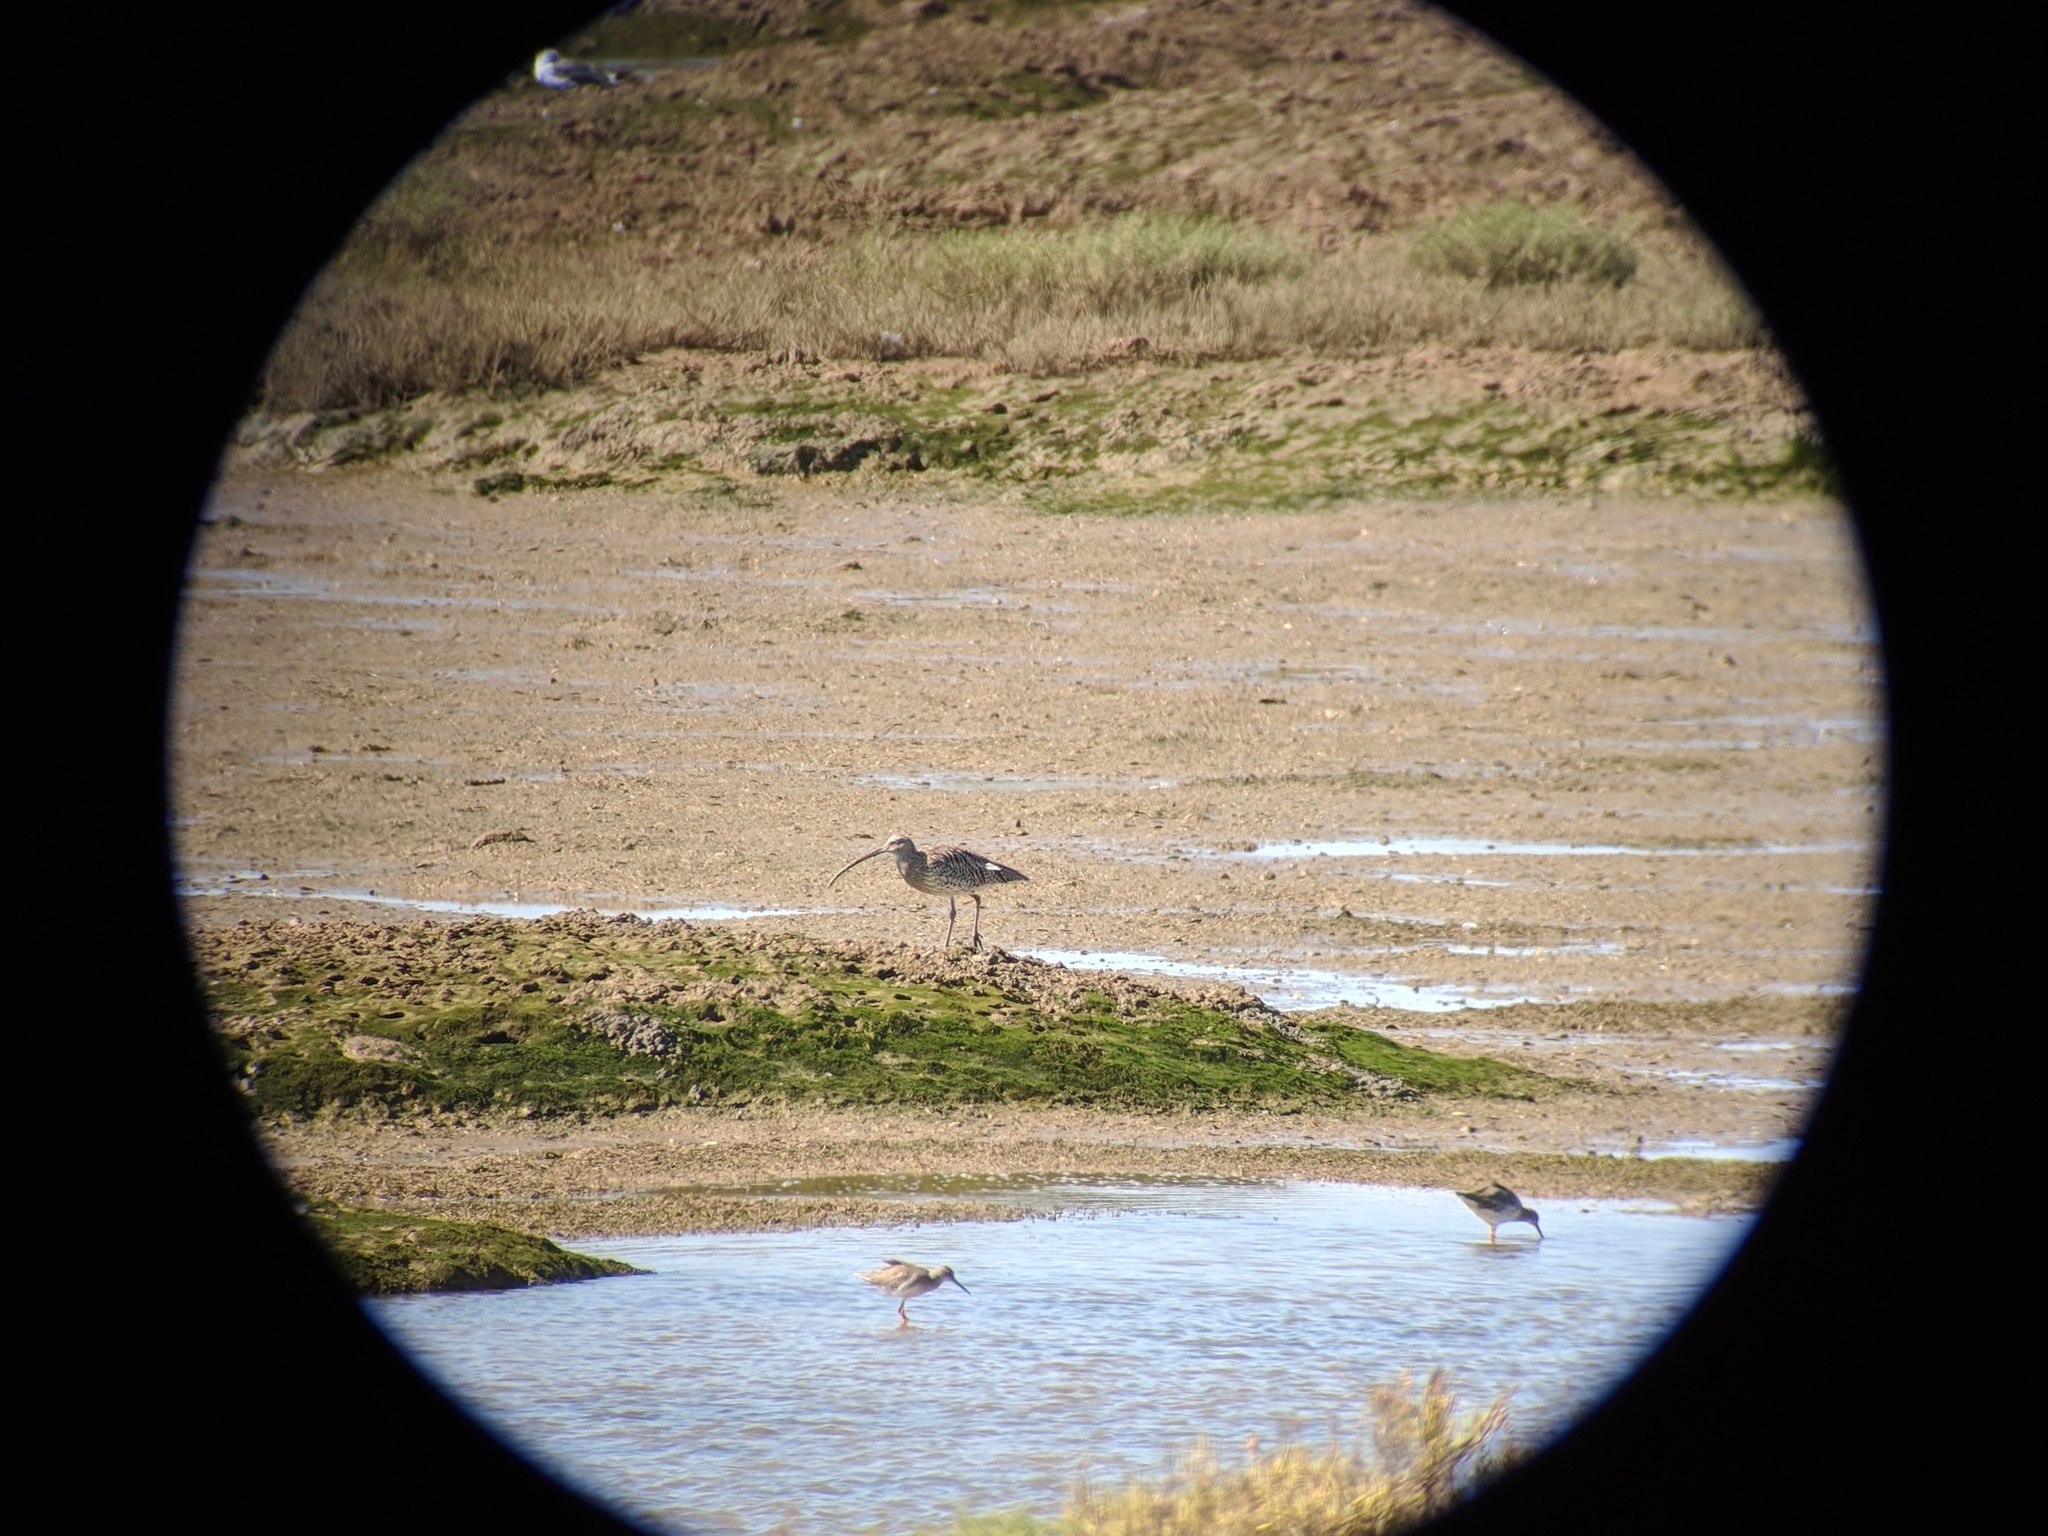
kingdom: Animalia
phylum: Chordata
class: Aves
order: Charadriiformes
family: Scolopacidae
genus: Numenius
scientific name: Numenius arquata
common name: Eurasian curlew
